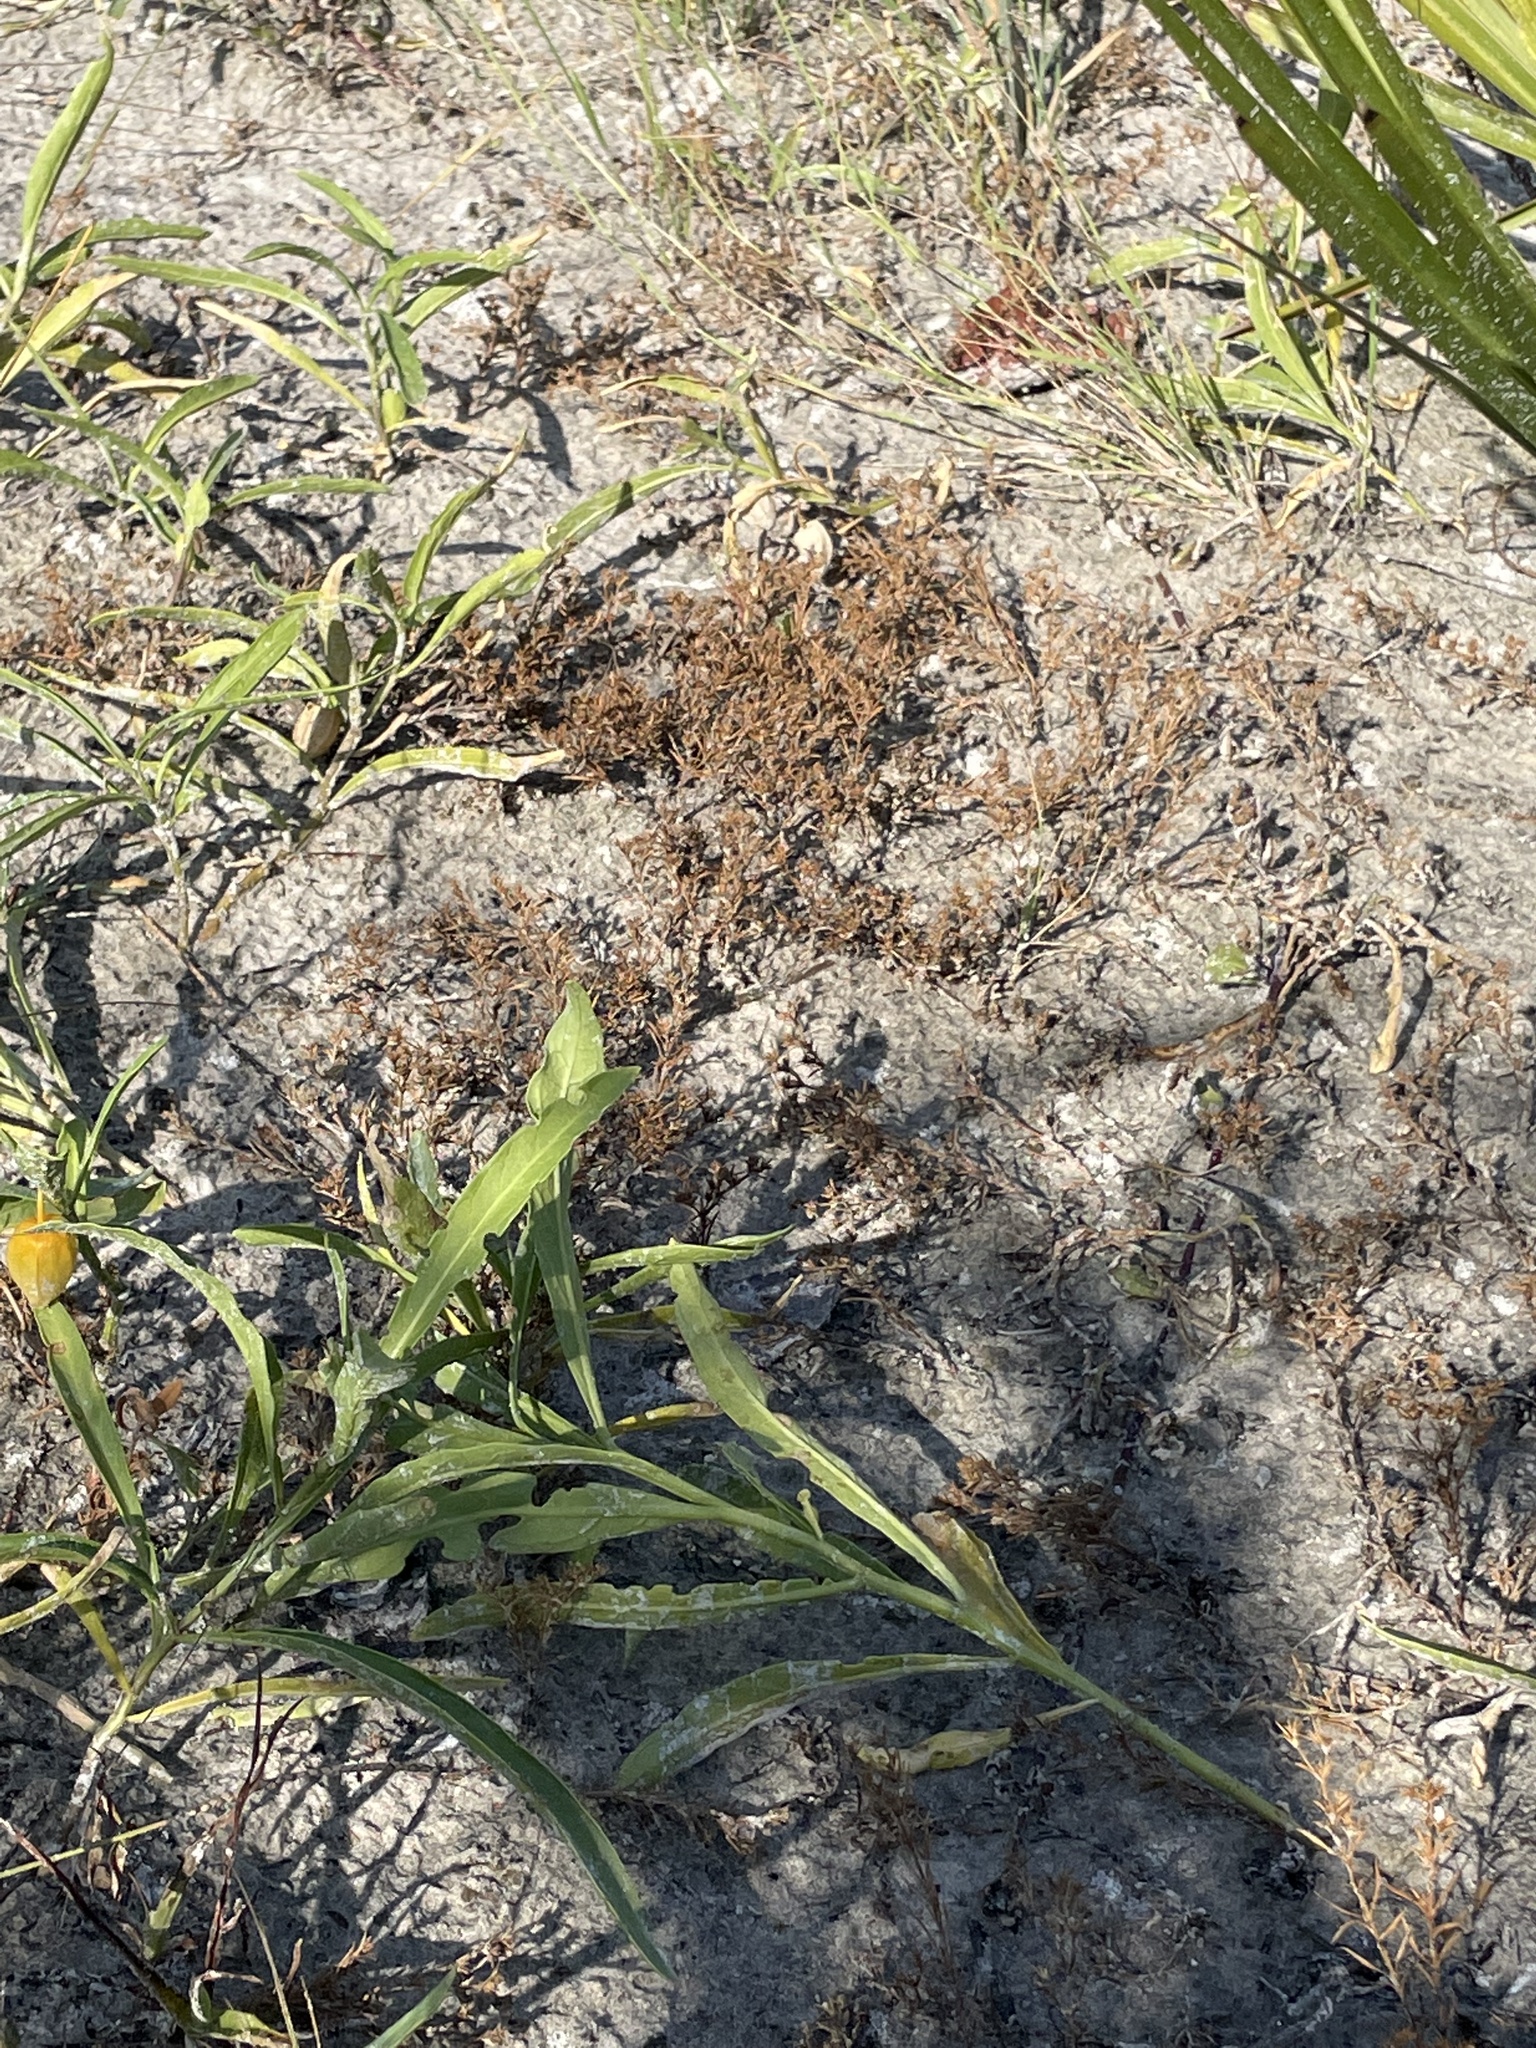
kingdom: Plantae
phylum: Tracheophyta
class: Magnoliopsida
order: Solanales
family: Solanaceae
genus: Physalis
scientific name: Physalis elliottii
